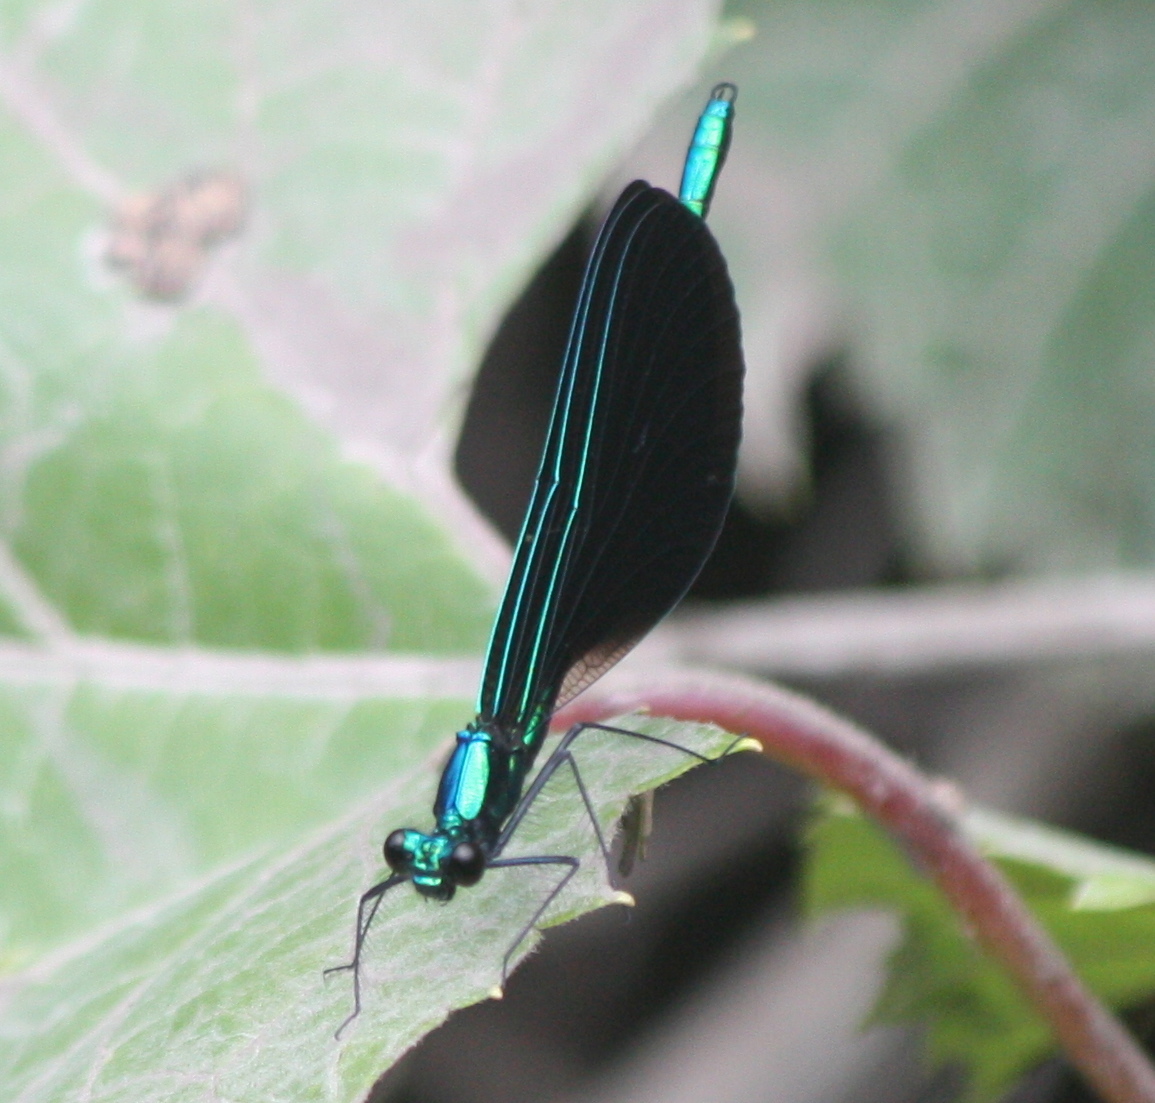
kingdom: Animalia
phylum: Arthropoda
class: Insecta
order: Odonata
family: Calopterygidae
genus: Calopteryx
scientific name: Calopteryx maculata
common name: Ebony jewelwing
